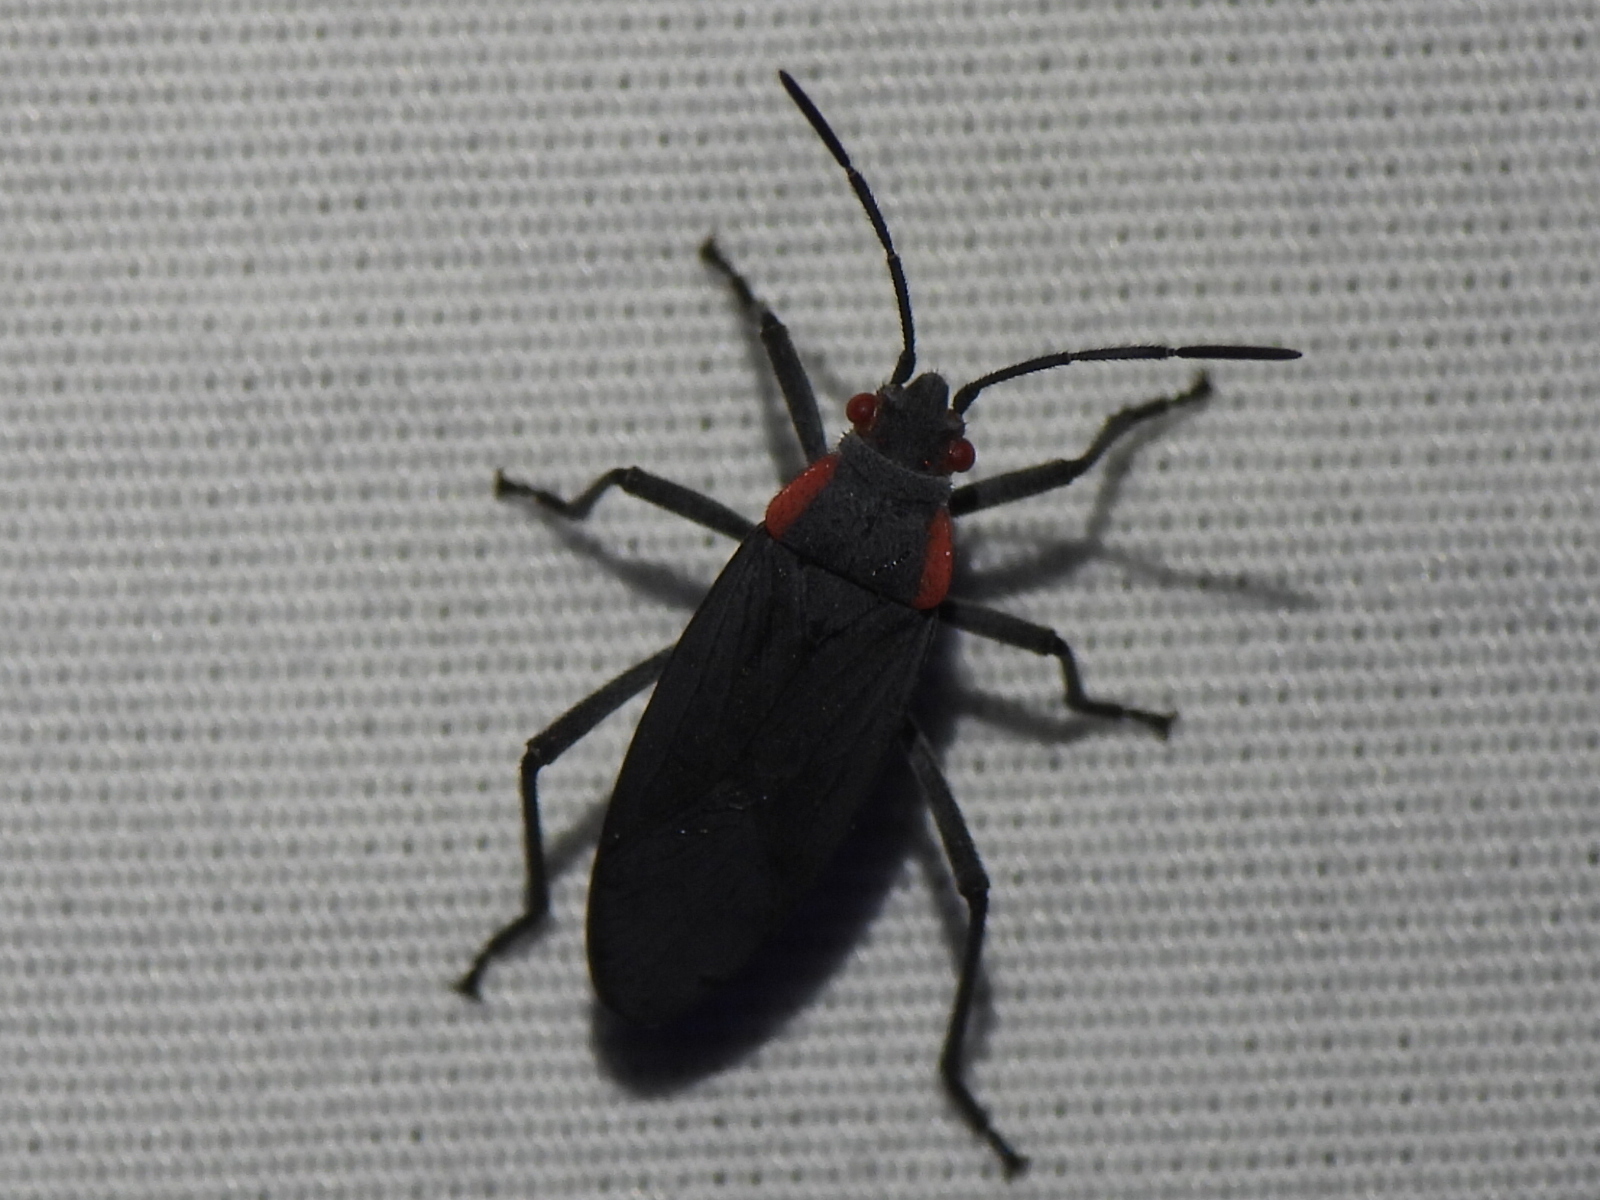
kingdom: Animalia
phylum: Arthropoda
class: Insecta
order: Hemiptera
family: Rhopalidae
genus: Jadera
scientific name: Jadera haematoloma
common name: Red-shouldered bug
